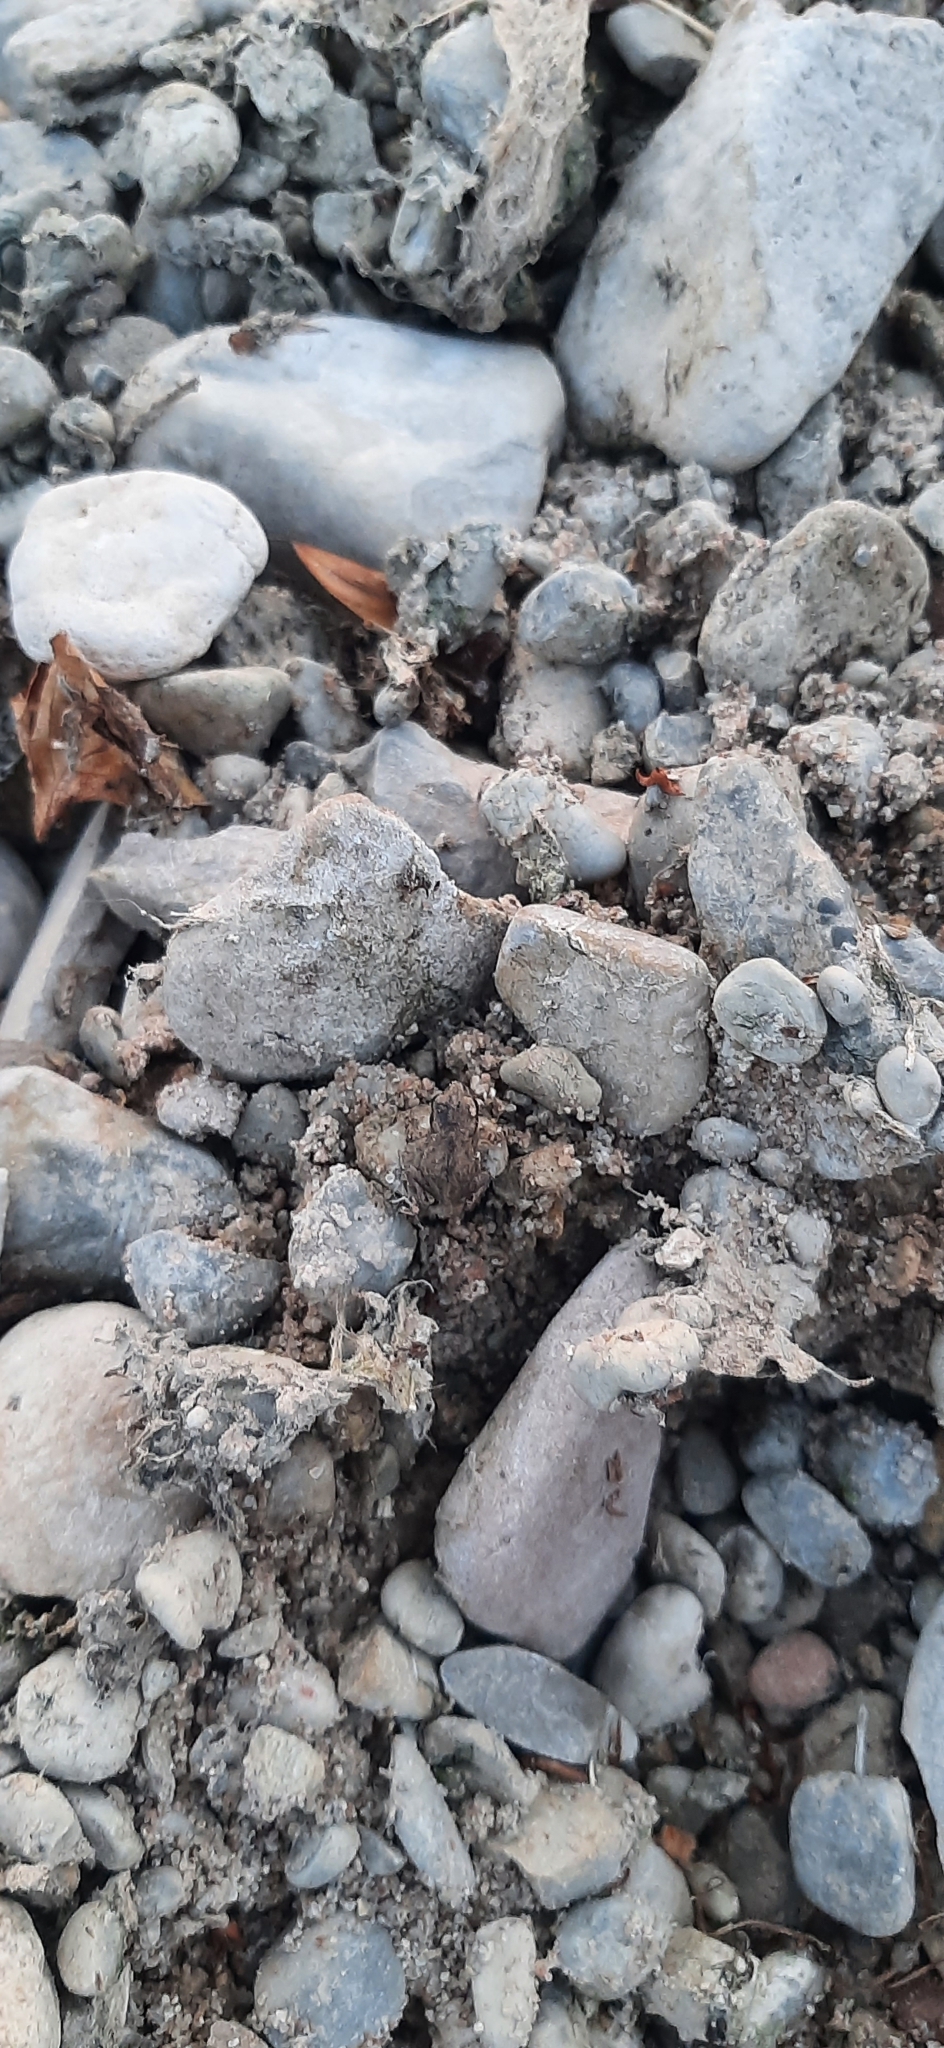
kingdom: Animalia
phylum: Chordata
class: Amphibia
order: Anura
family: Bufonidae
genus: Bufo
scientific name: Bufo bufo
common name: Common toad
